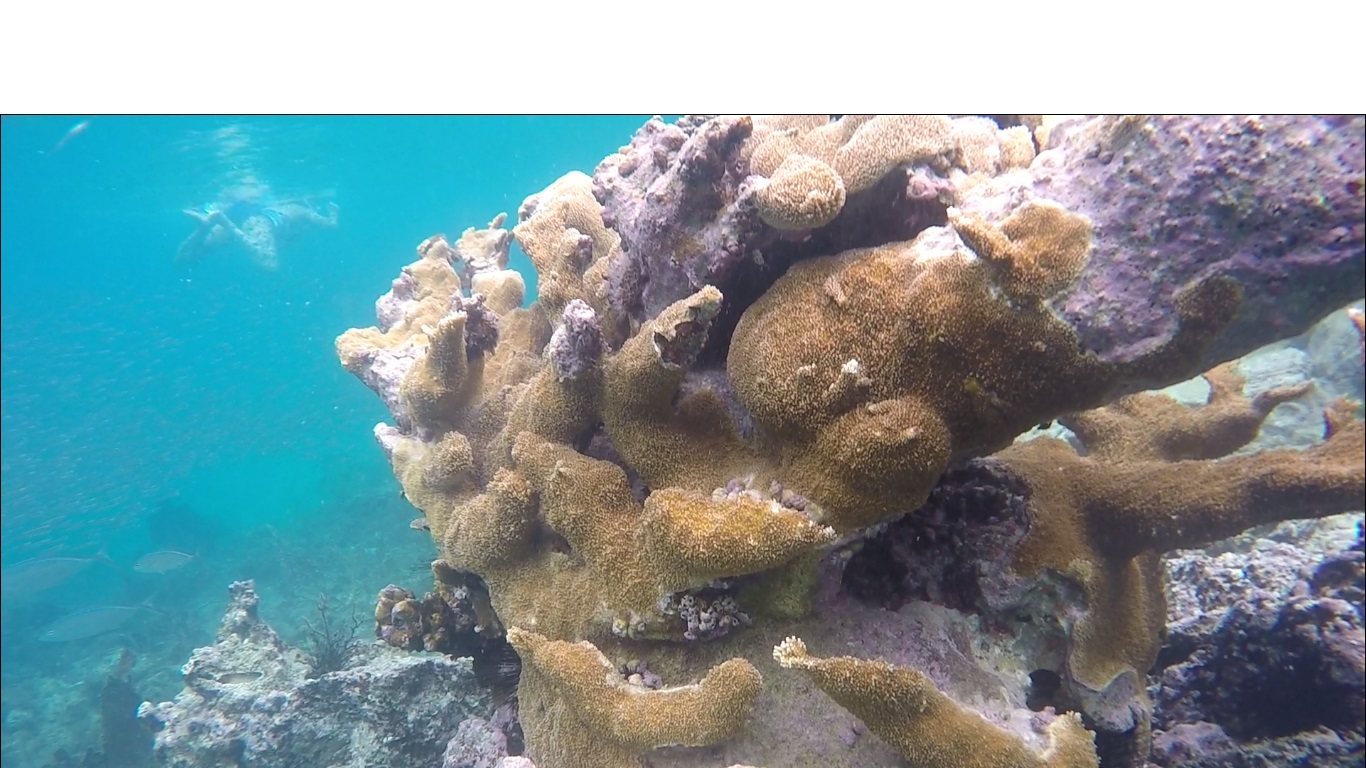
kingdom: Animalia
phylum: Cnidaria
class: Anthozoa
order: Scleractinia
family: Acroporidae
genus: Acropora
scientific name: Acropora palmata
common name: Elkhorn coral
